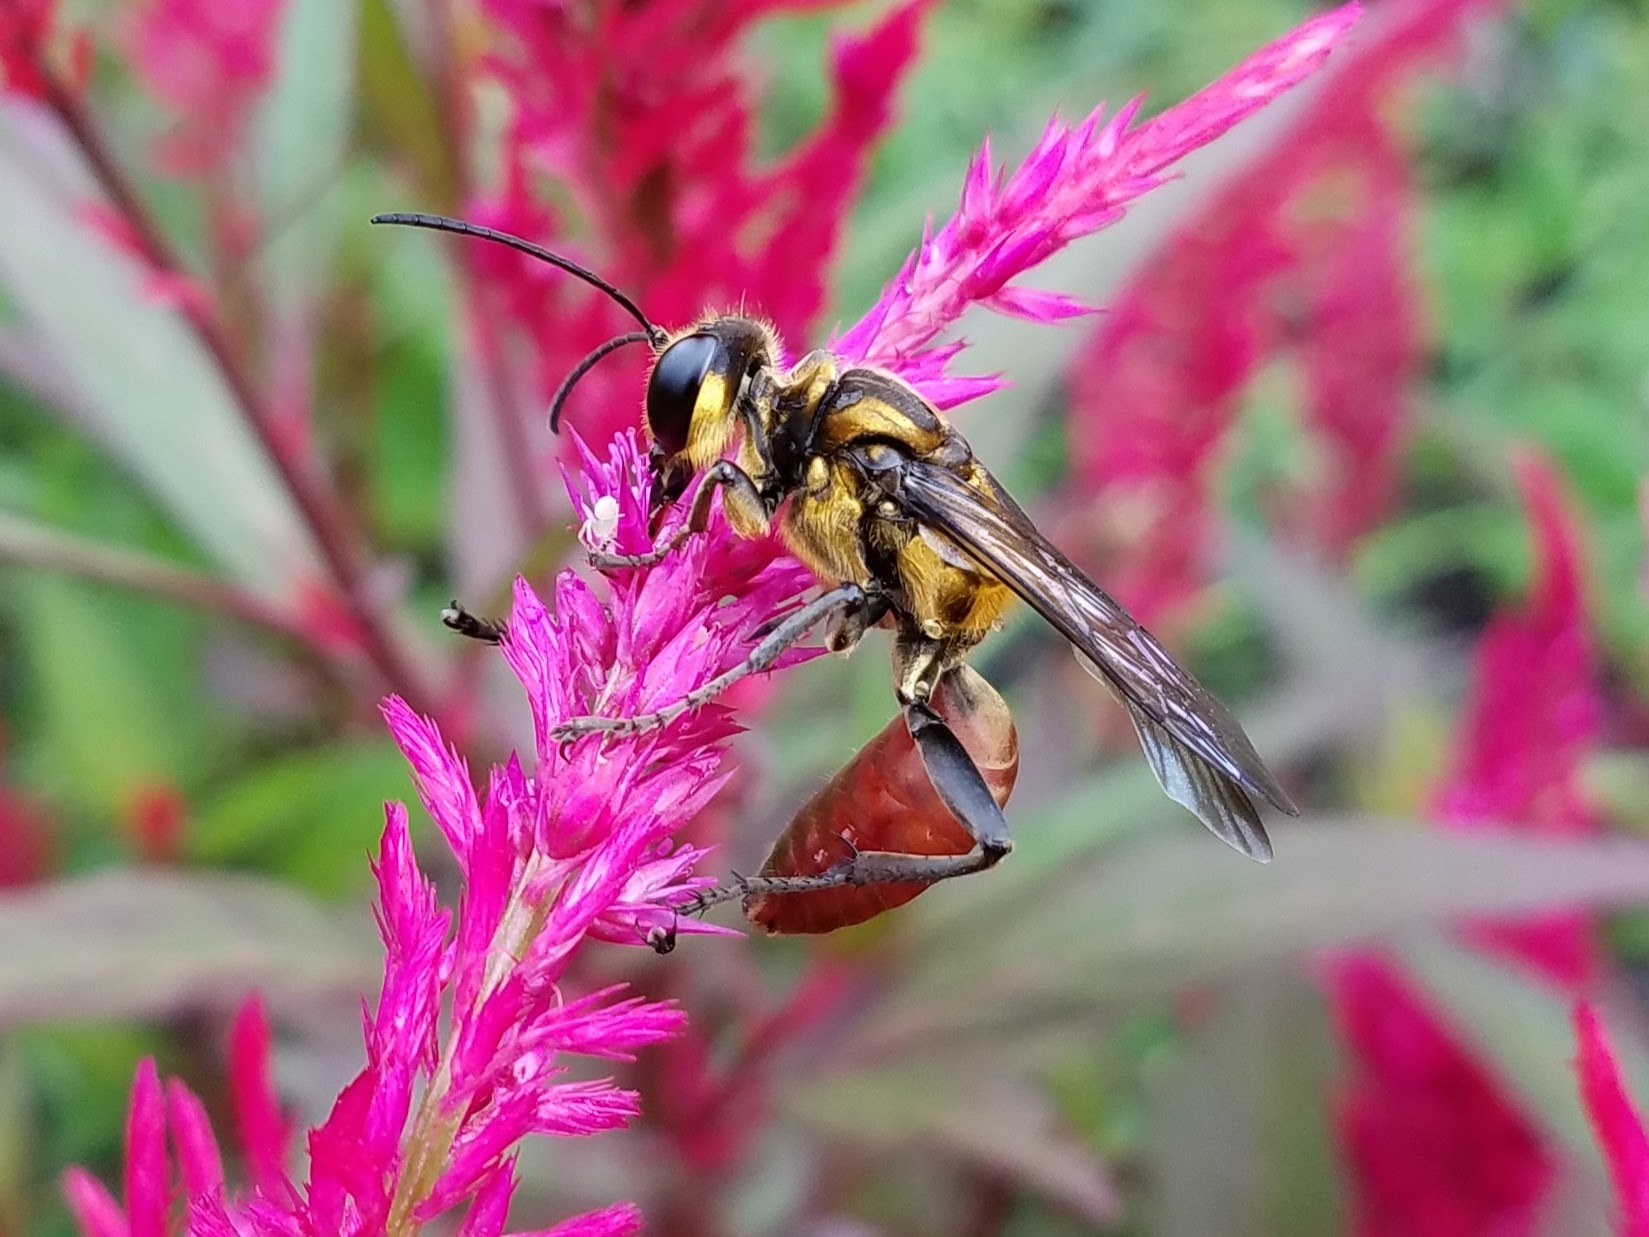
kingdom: Animalia
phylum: Arthropoda
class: Insecta
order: Hymenoptera
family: Sphecidae
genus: Sphex
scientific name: Sphex habenus
